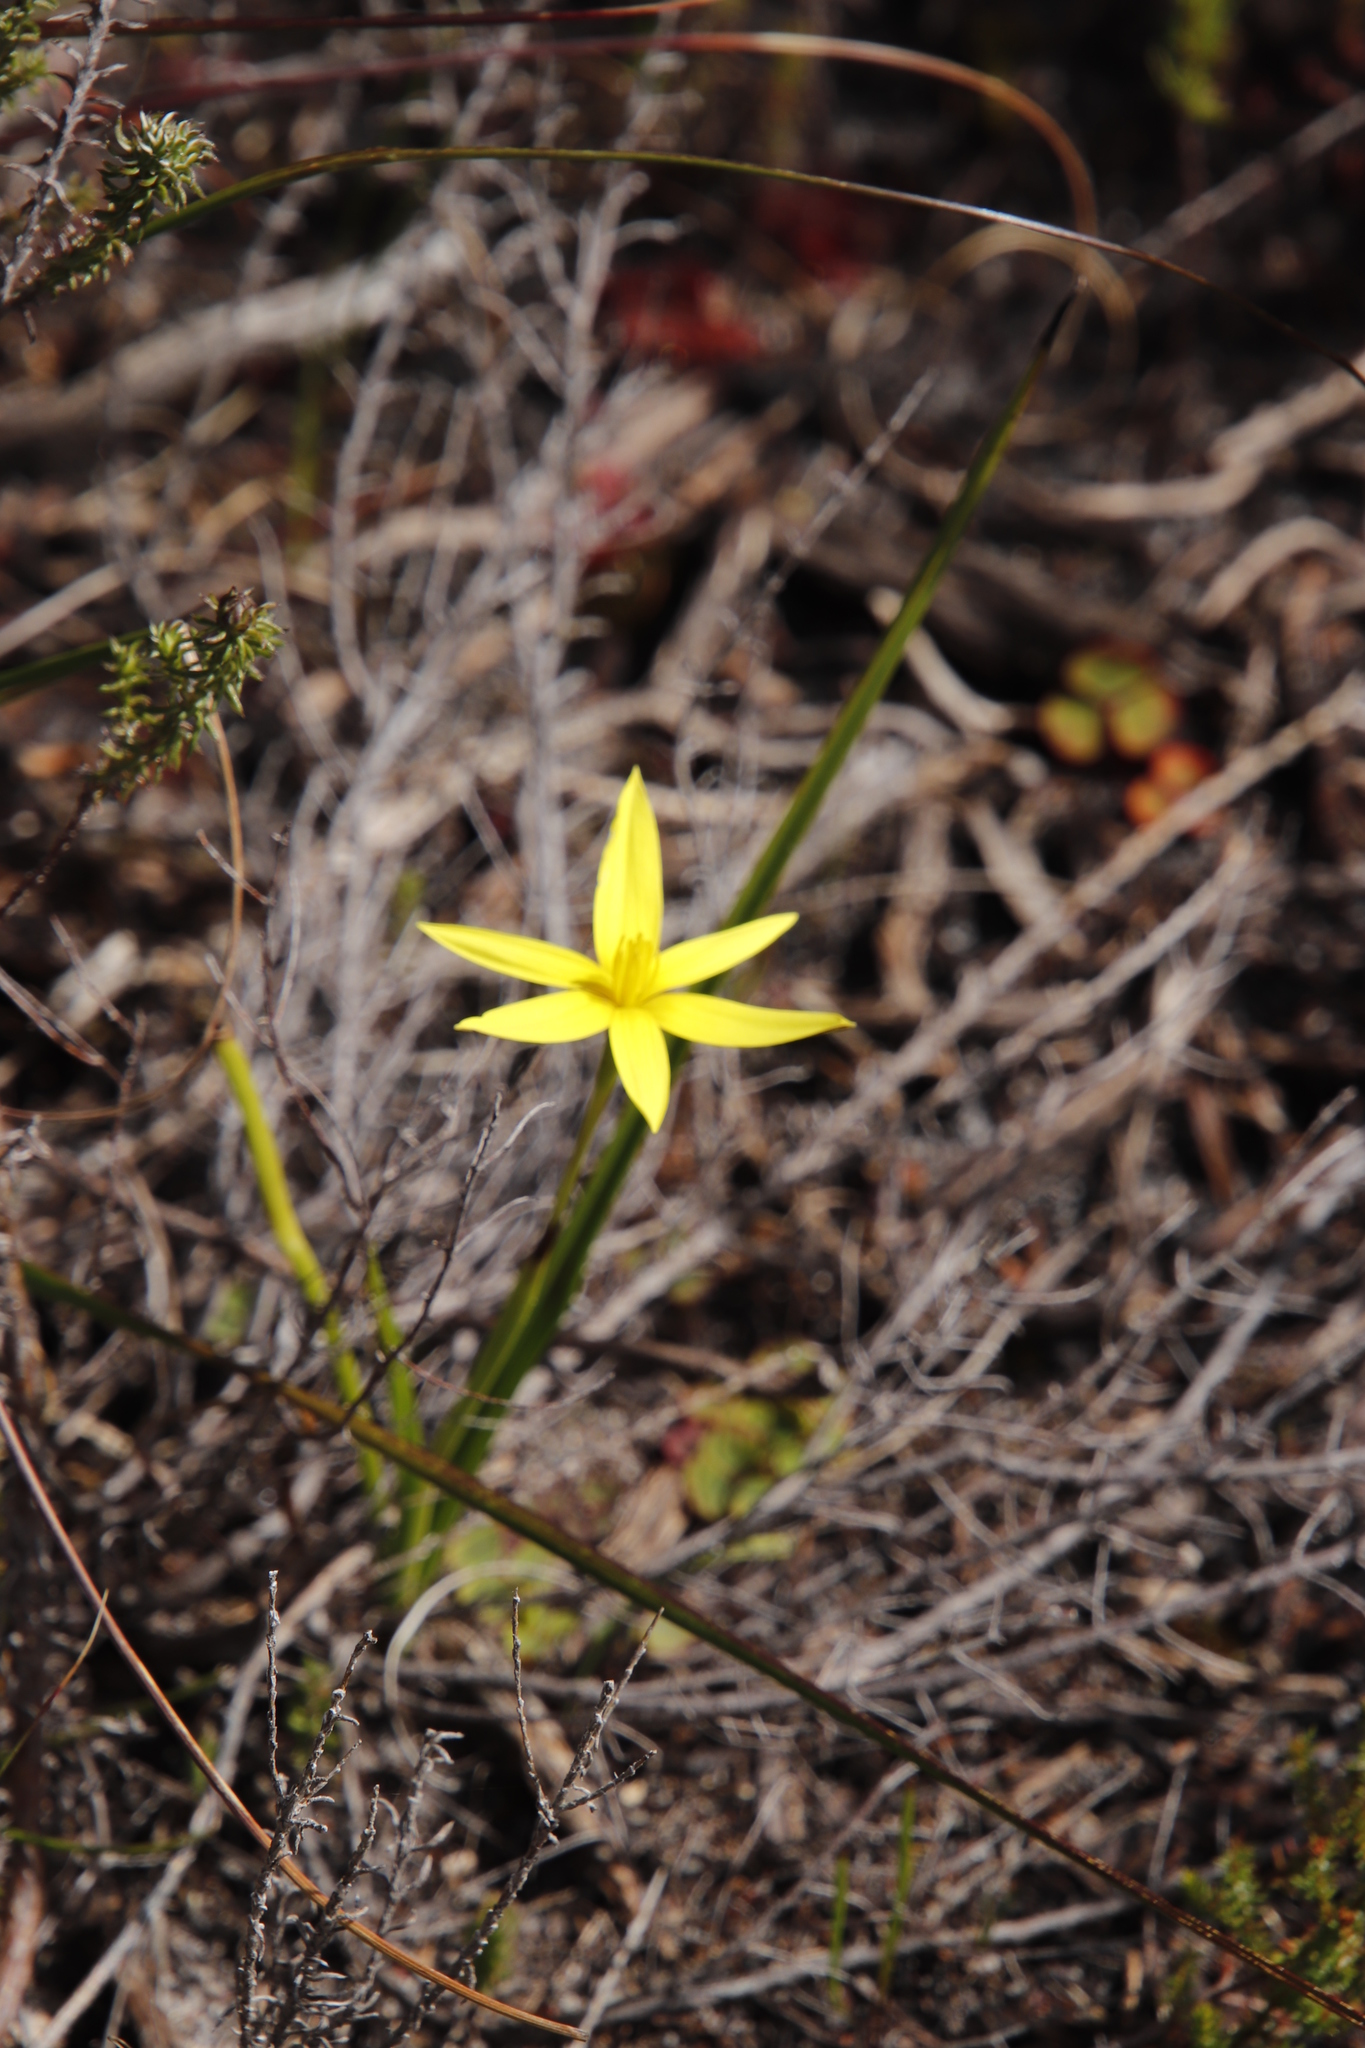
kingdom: Plantae
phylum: Tracheophyta
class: Liliopsida
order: Asparagales
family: Hypoxidaceae
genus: Pauridia
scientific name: Pauridia capensis
